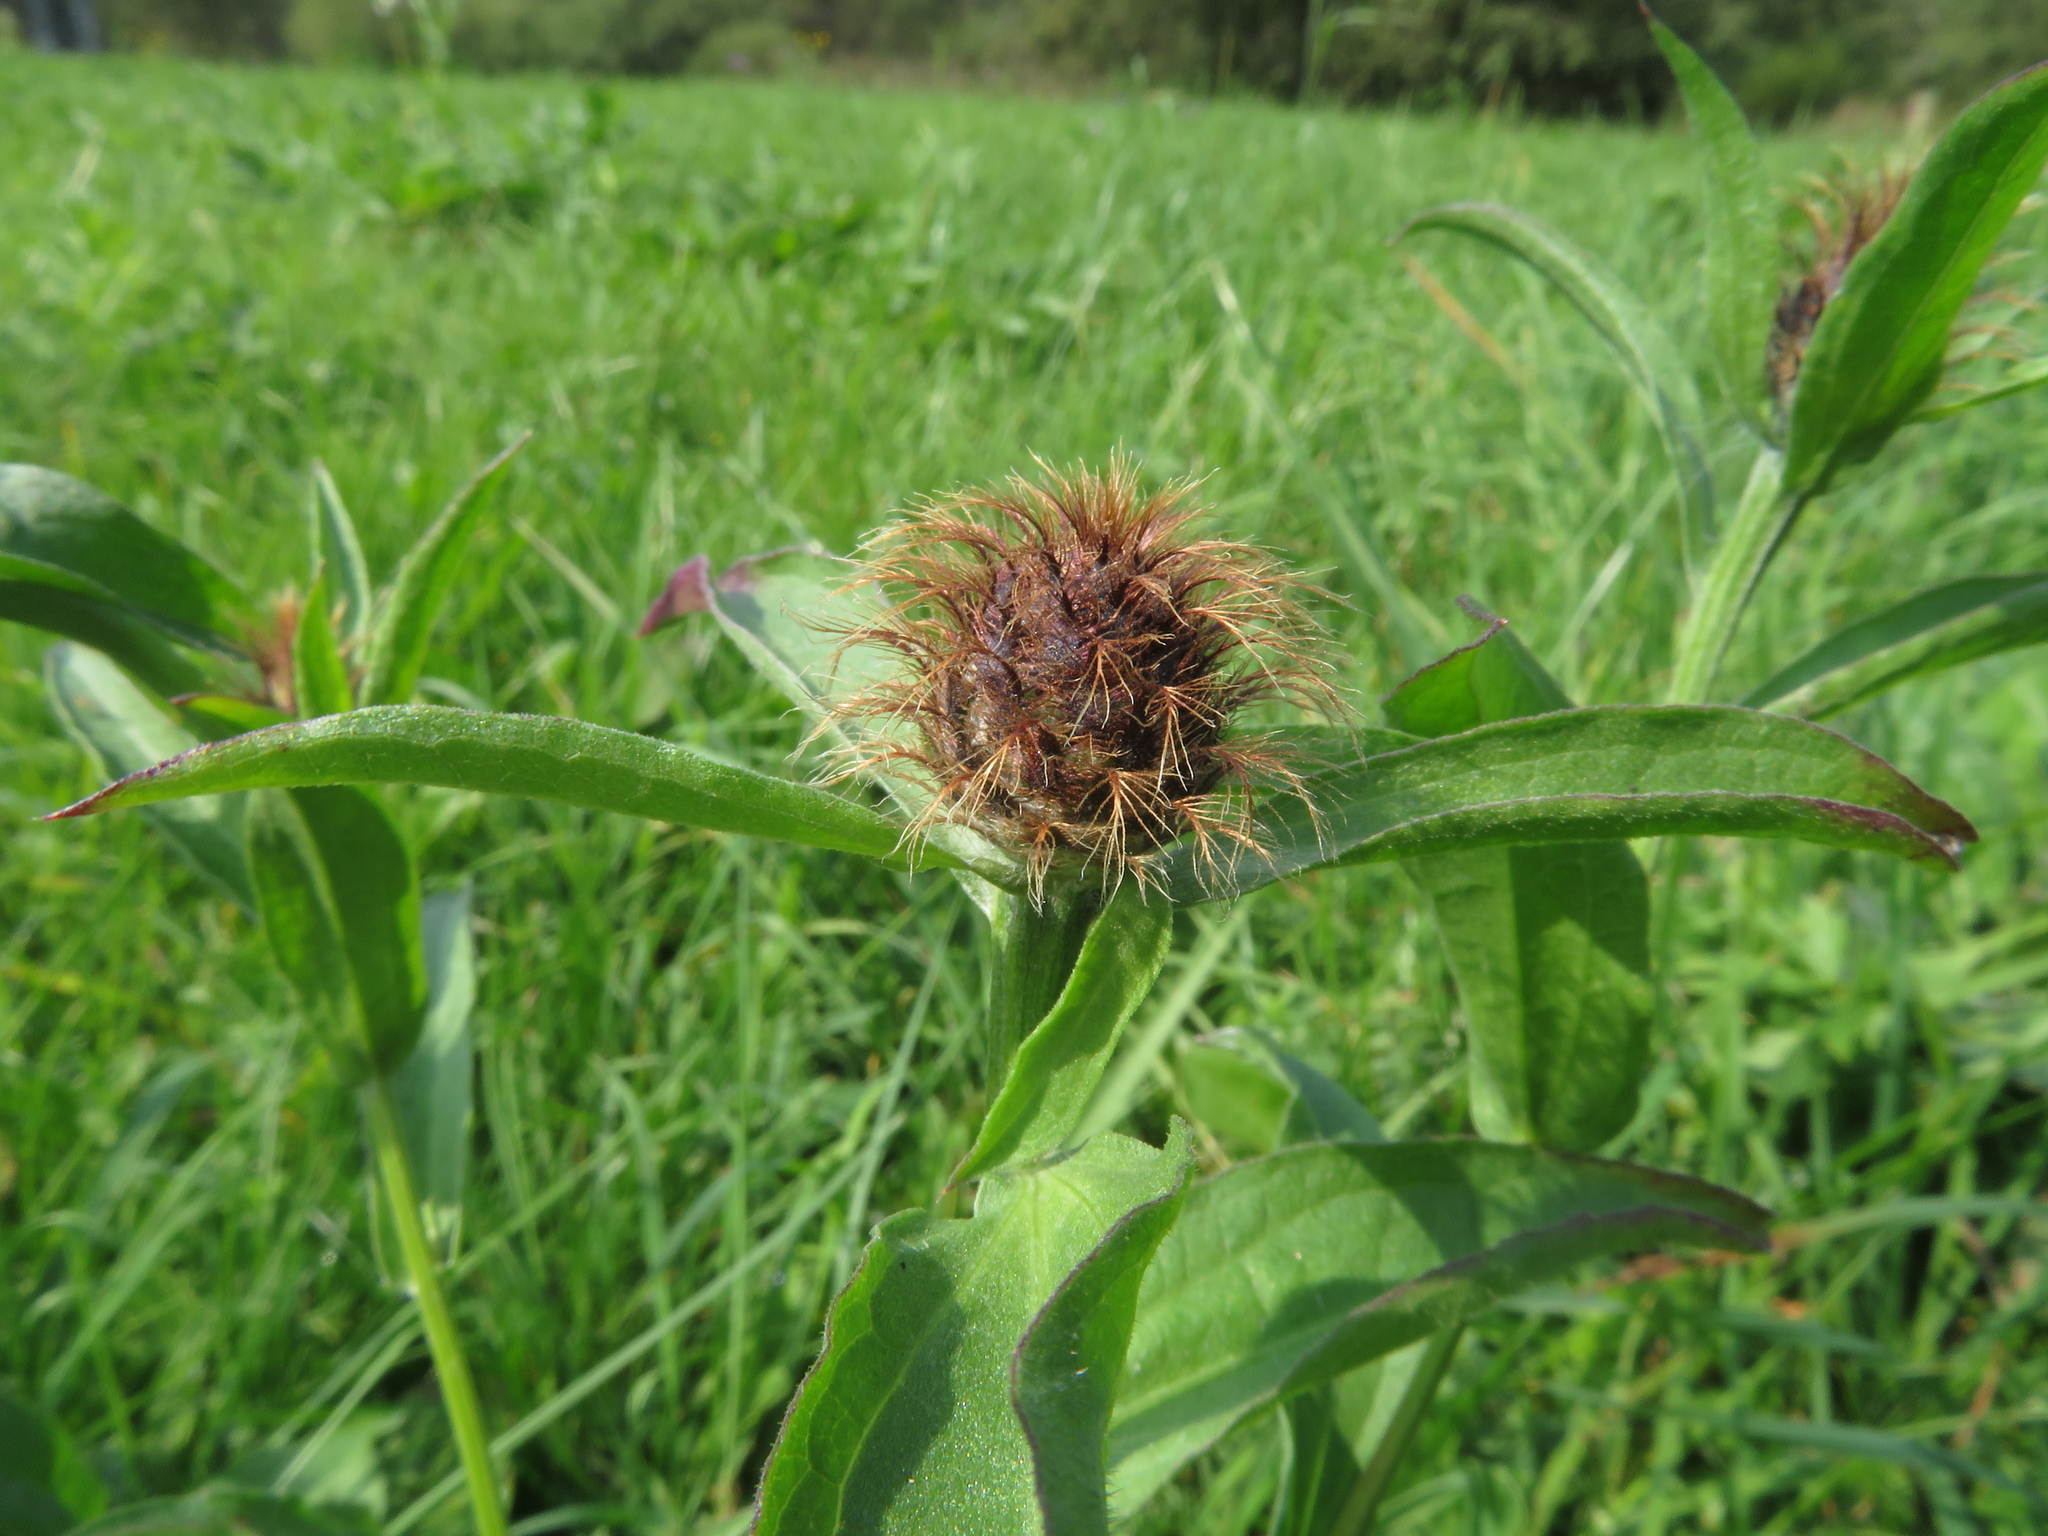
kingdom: Plantae
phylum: Tracheophyta
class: Magnoliopsida
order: Asterales
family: Asteraceae
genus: Centaurea
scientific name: Centaurea erdneri
